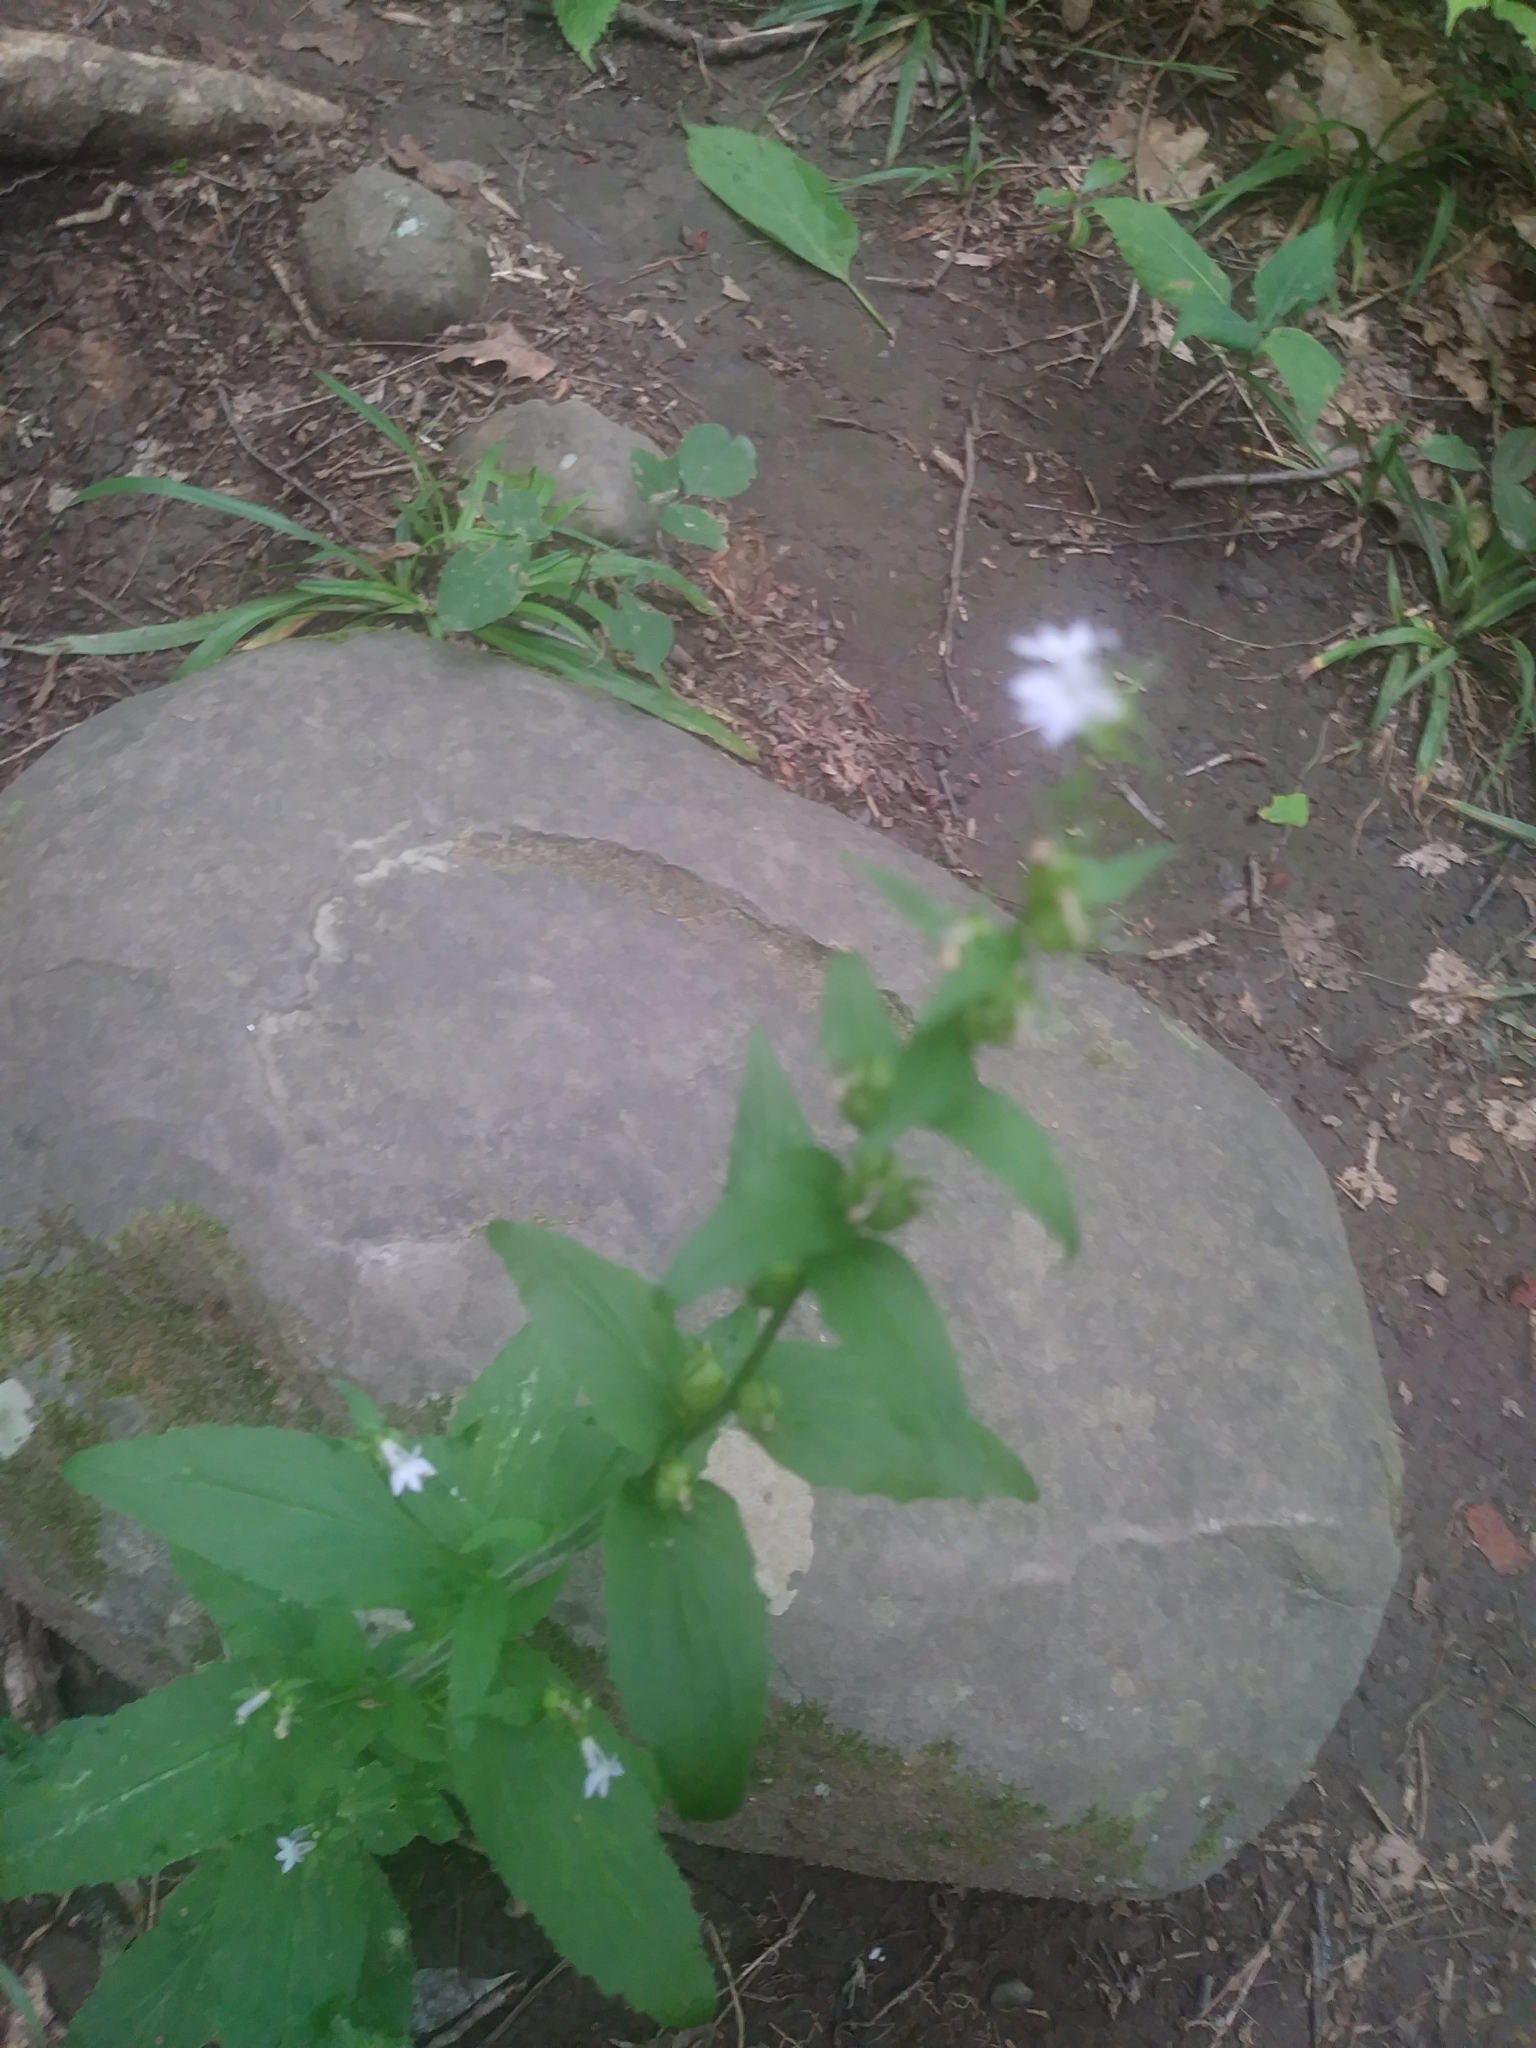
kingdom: Plantae
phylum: Tracheophyta
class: Magnoliopsida
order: Asterales
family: Campanulaceae
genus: Lobelia
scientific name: Lobelia inflata
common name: Indian tobacco
